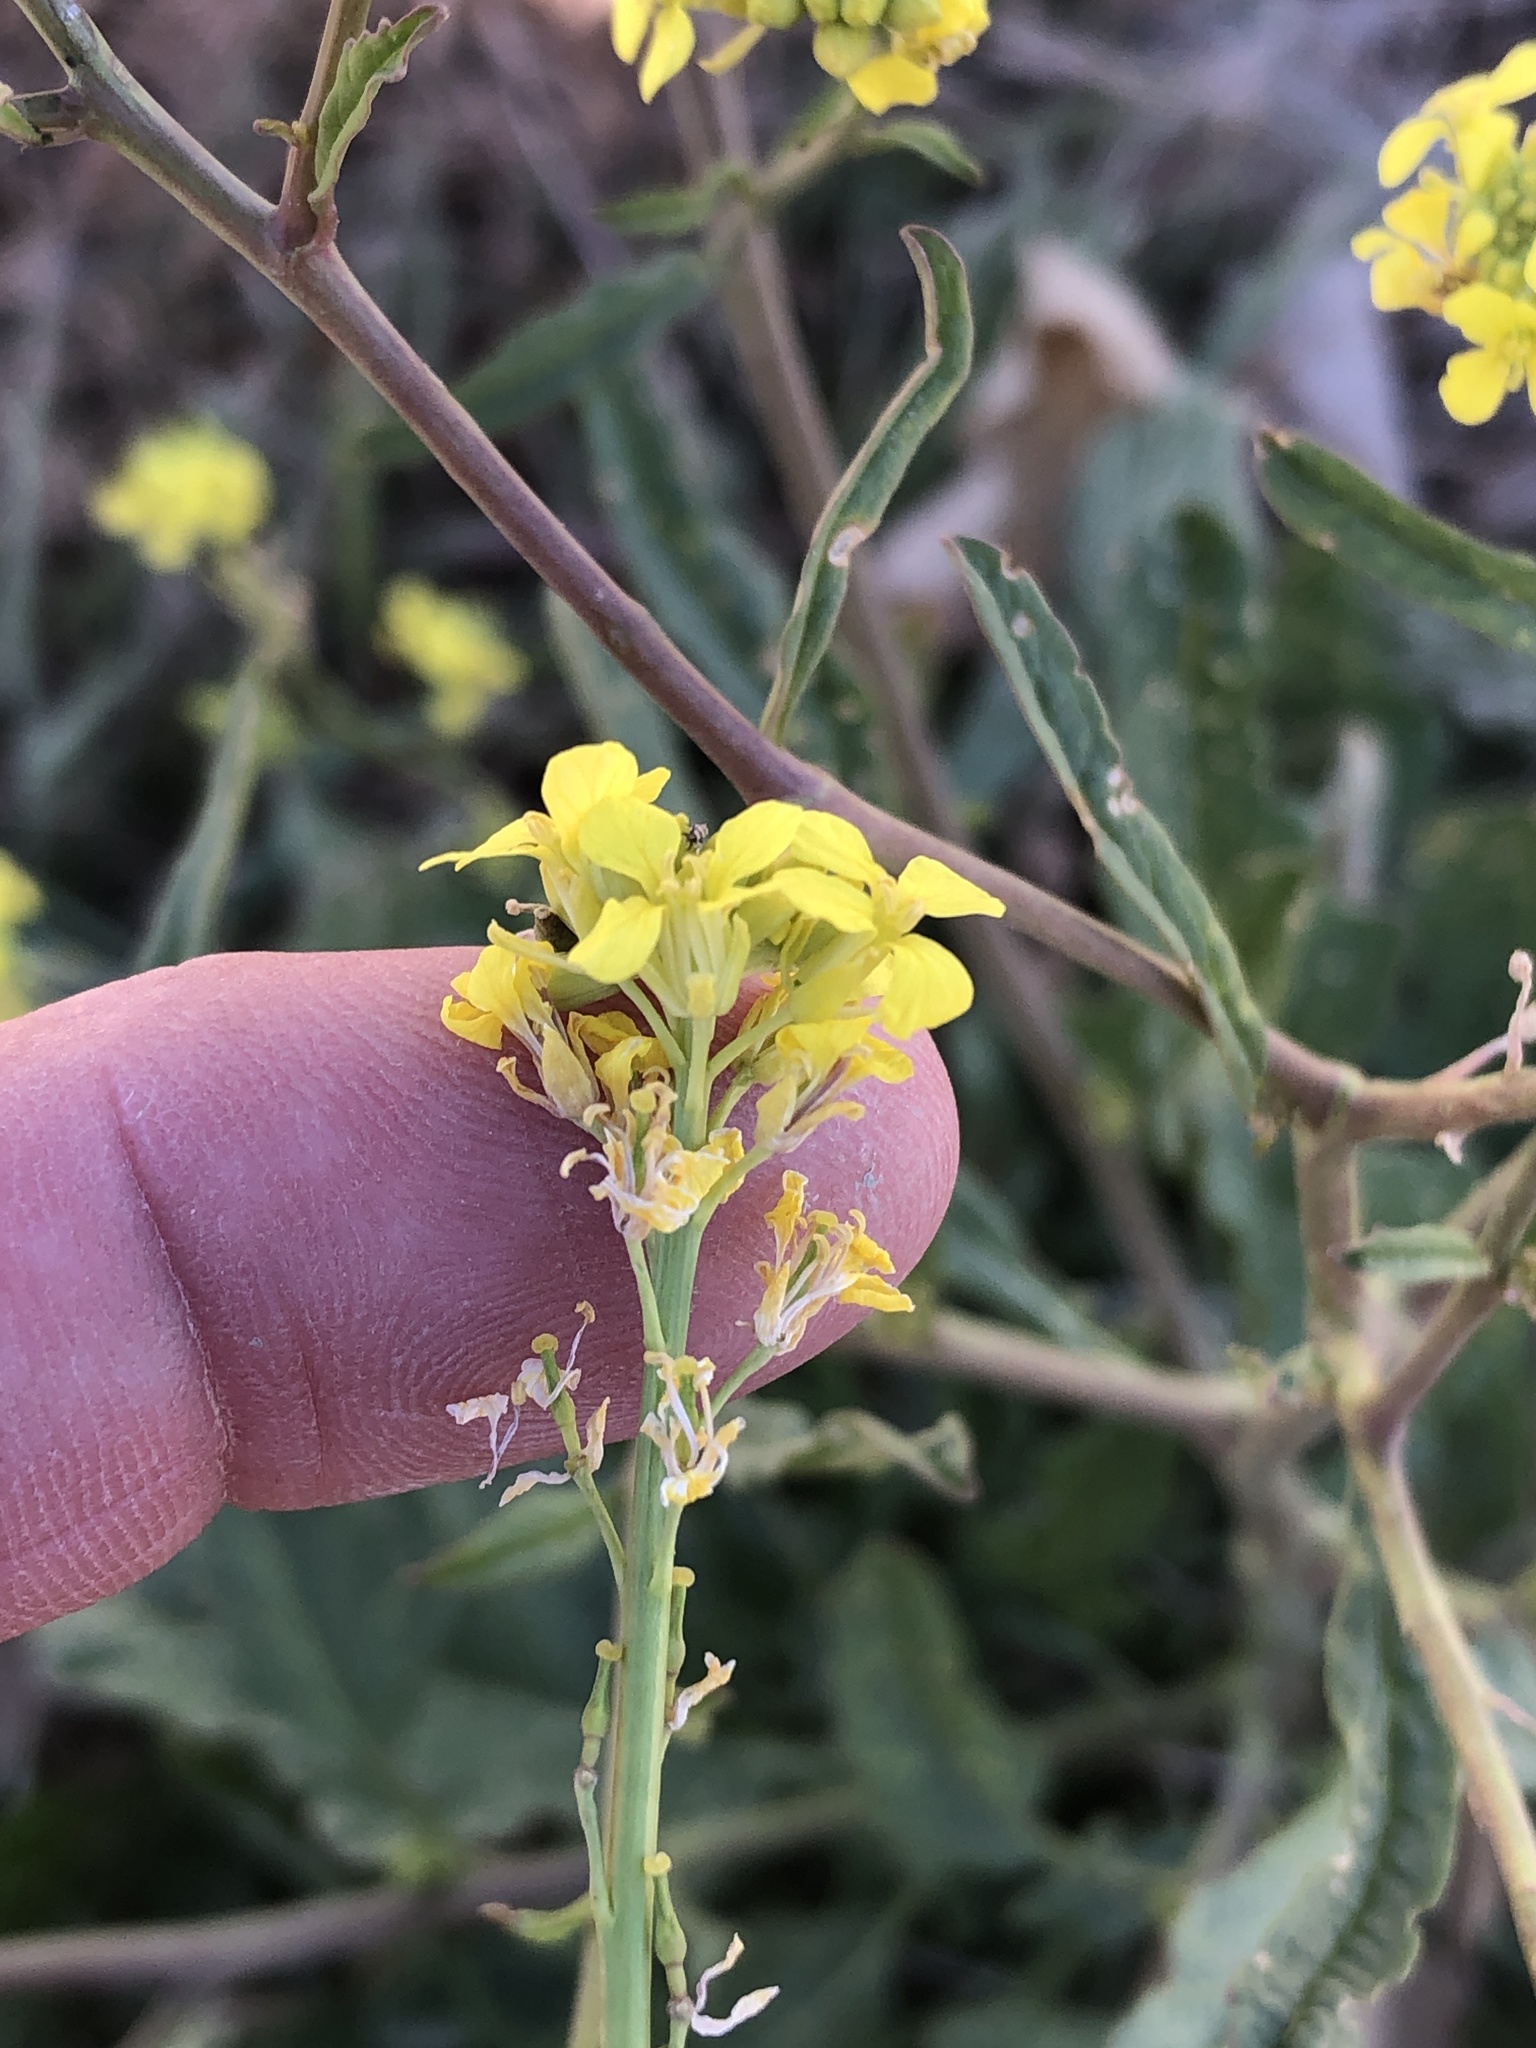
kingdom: Plantae
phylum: Tracheophyta
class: Magnoliopsida
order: Brassicales
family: Brassicaceae
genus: Rapistrum
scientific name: Rapistrum rugosum
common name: Annual bastardcabbage
